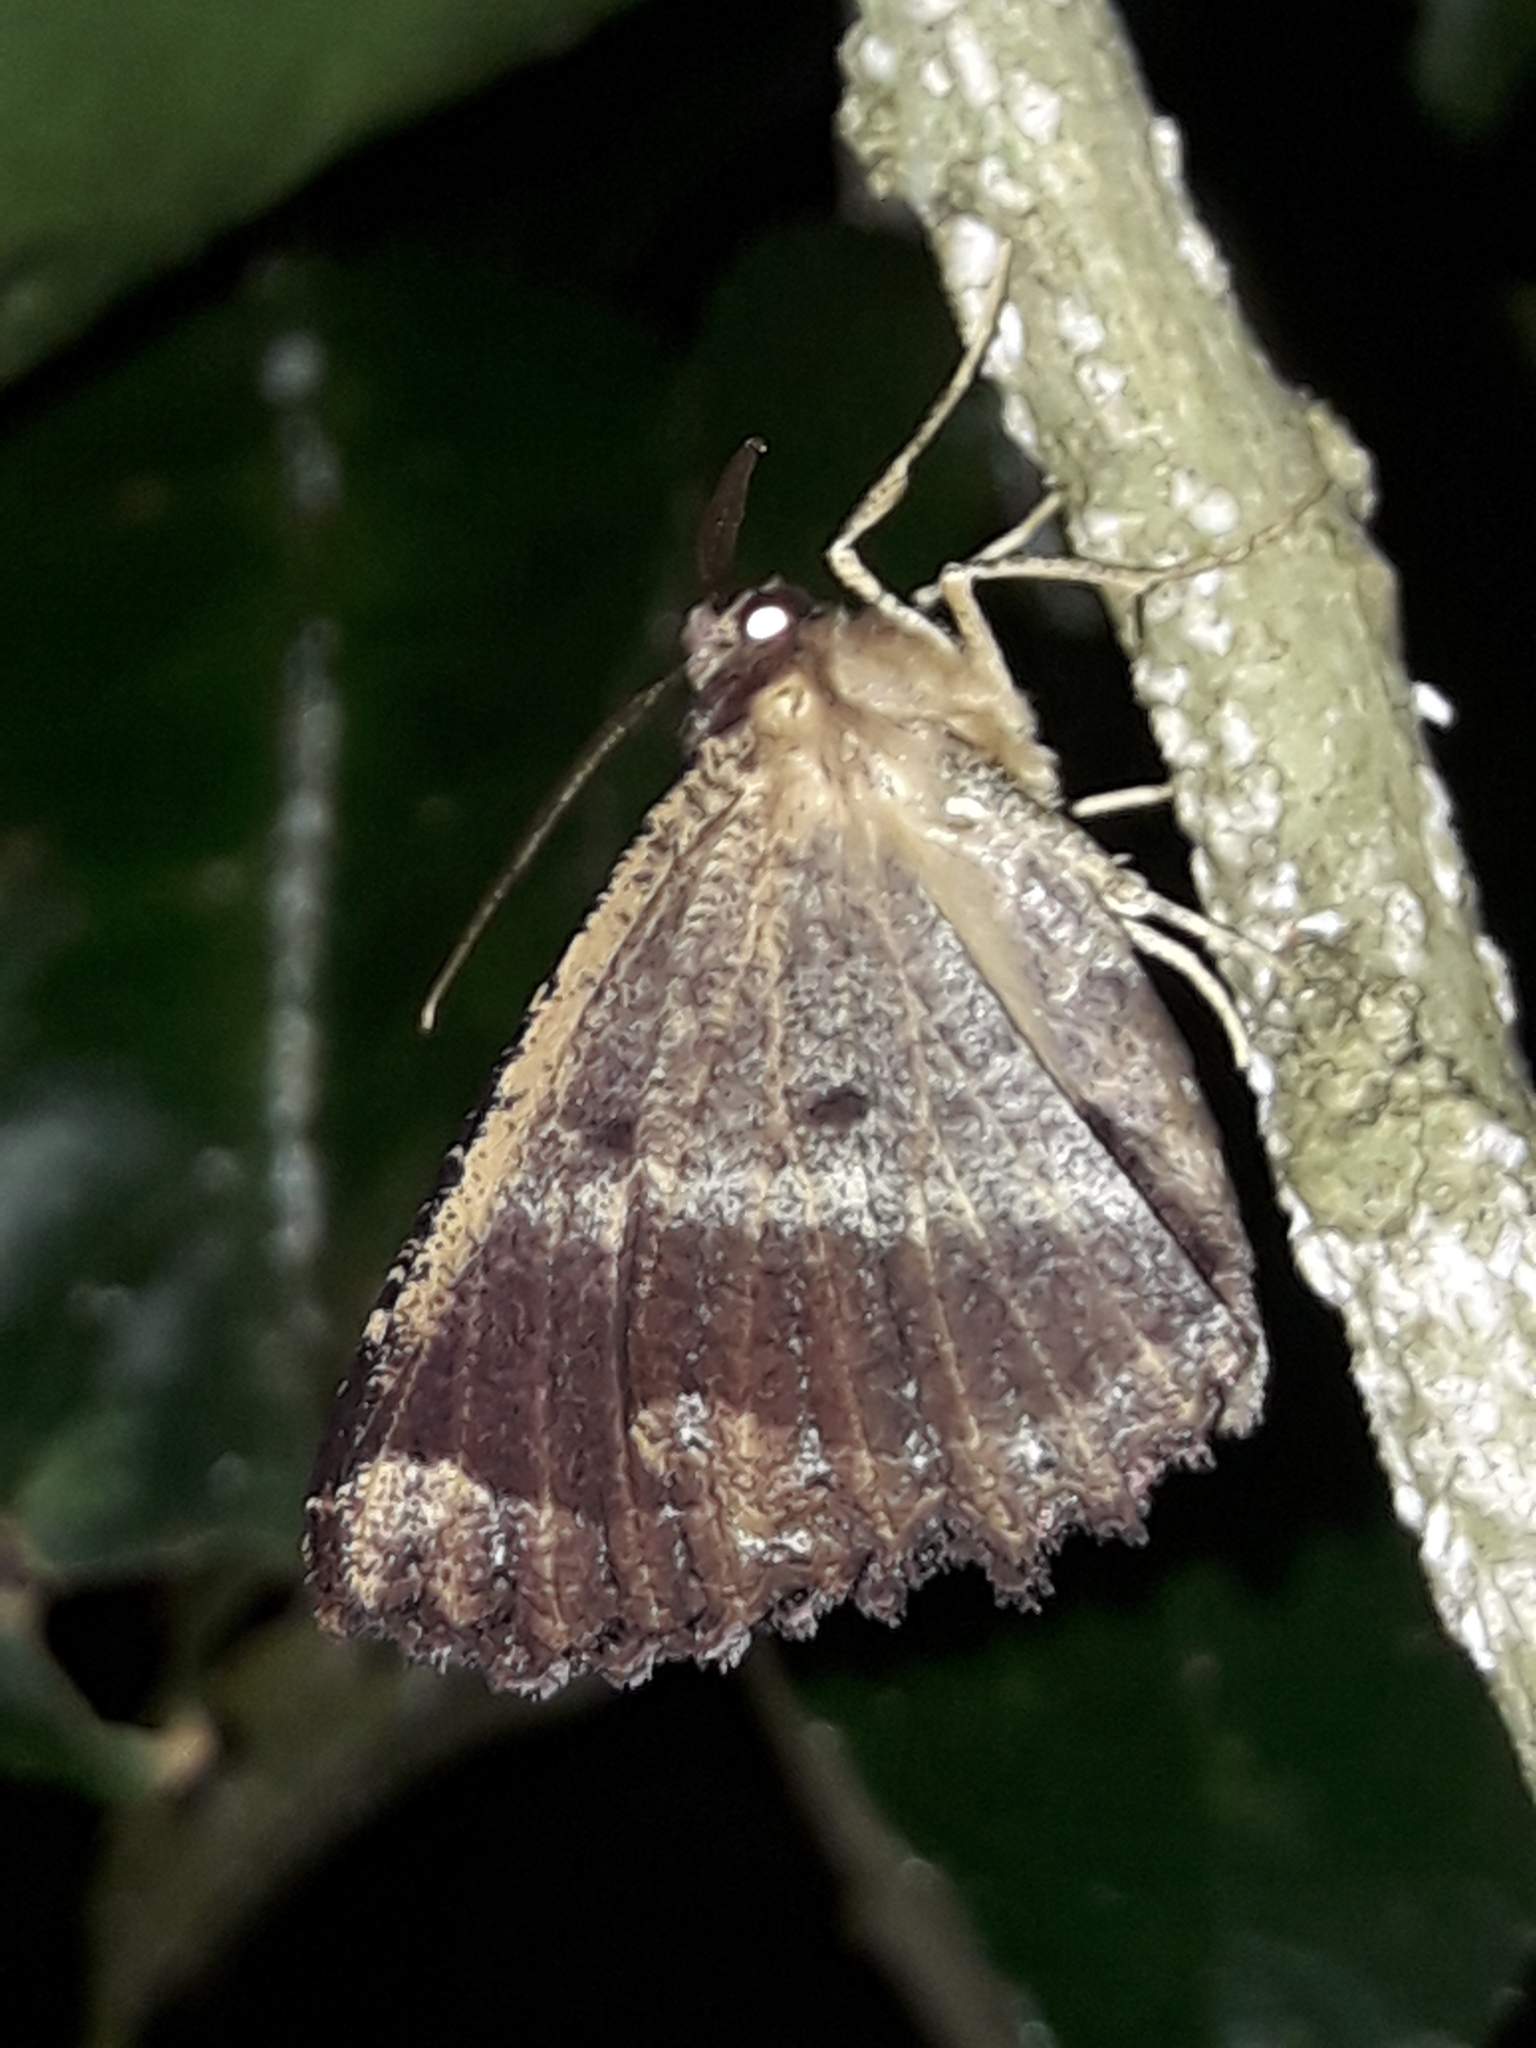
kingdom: Animalia
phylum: Arthropoda
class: Insecta
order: Lepidoptera
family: Geometridae
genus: Gellonia
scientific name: Gellonia dejectaria
